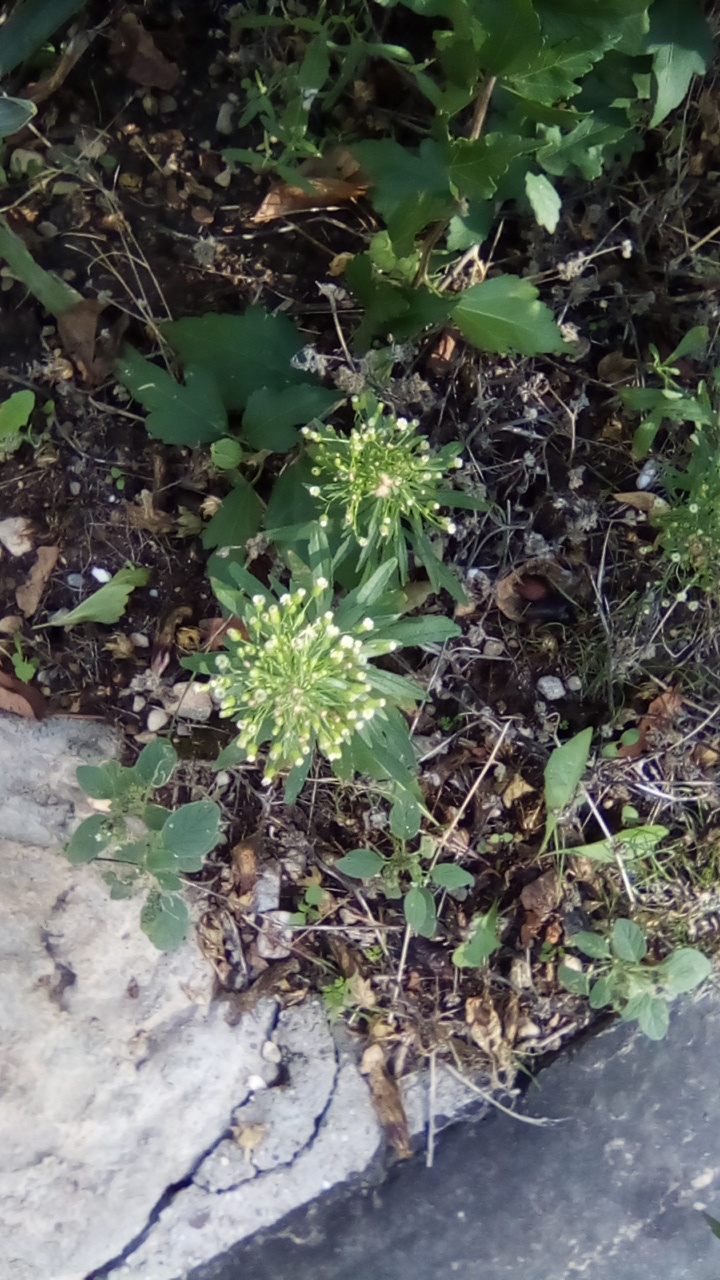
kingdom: Plantae
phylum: Tracheophyta
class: Magnoliopsida
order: Asterales
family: Asteraceae
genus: Erigeron
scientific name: Erigeron canadensis
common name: Canadian fleabane
